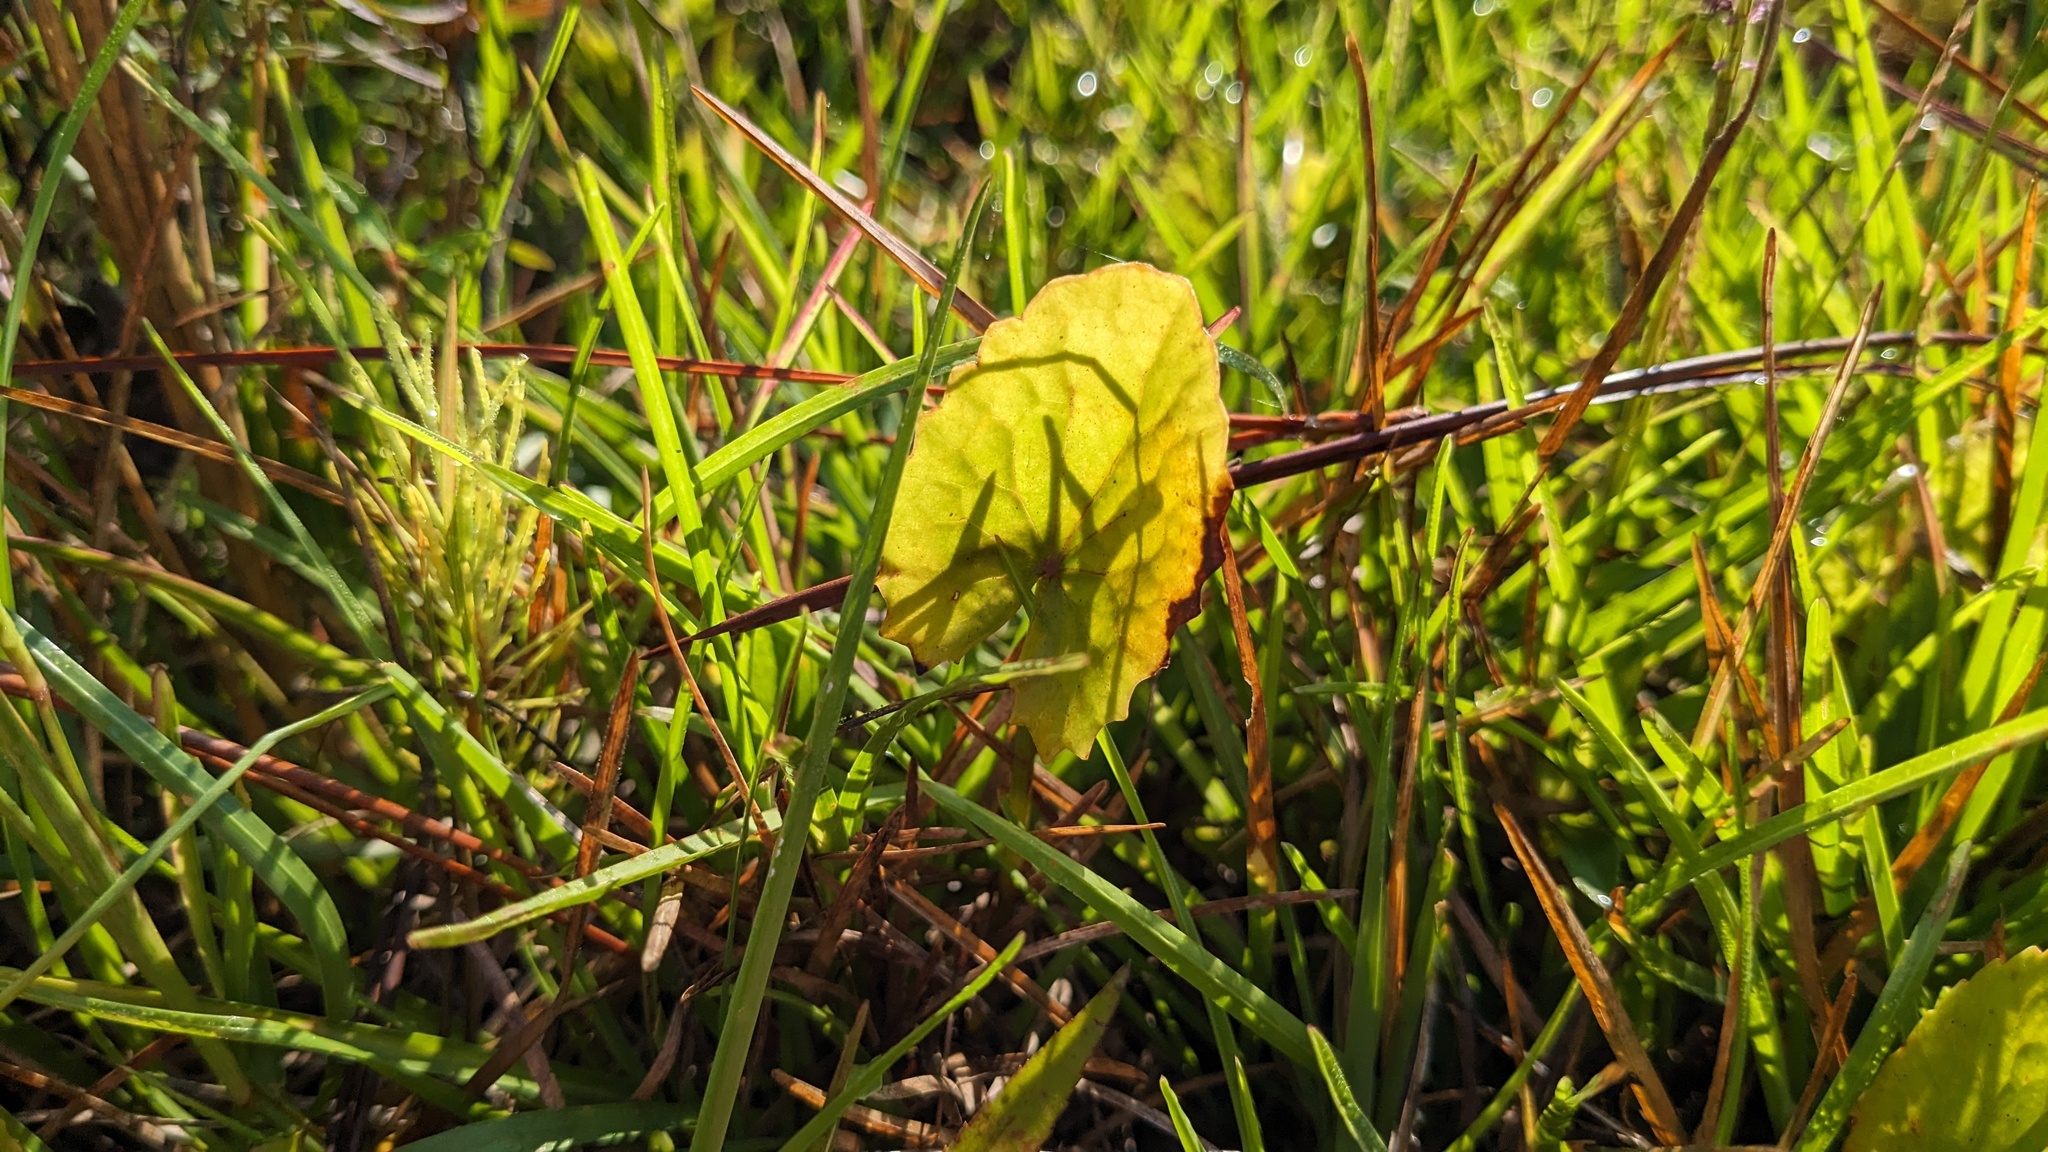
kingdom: Plantae
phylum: Tracheophyta
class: Magnoliopsida
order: Apiales
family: Apiaceae
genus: Centella
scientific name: Centella erecta
